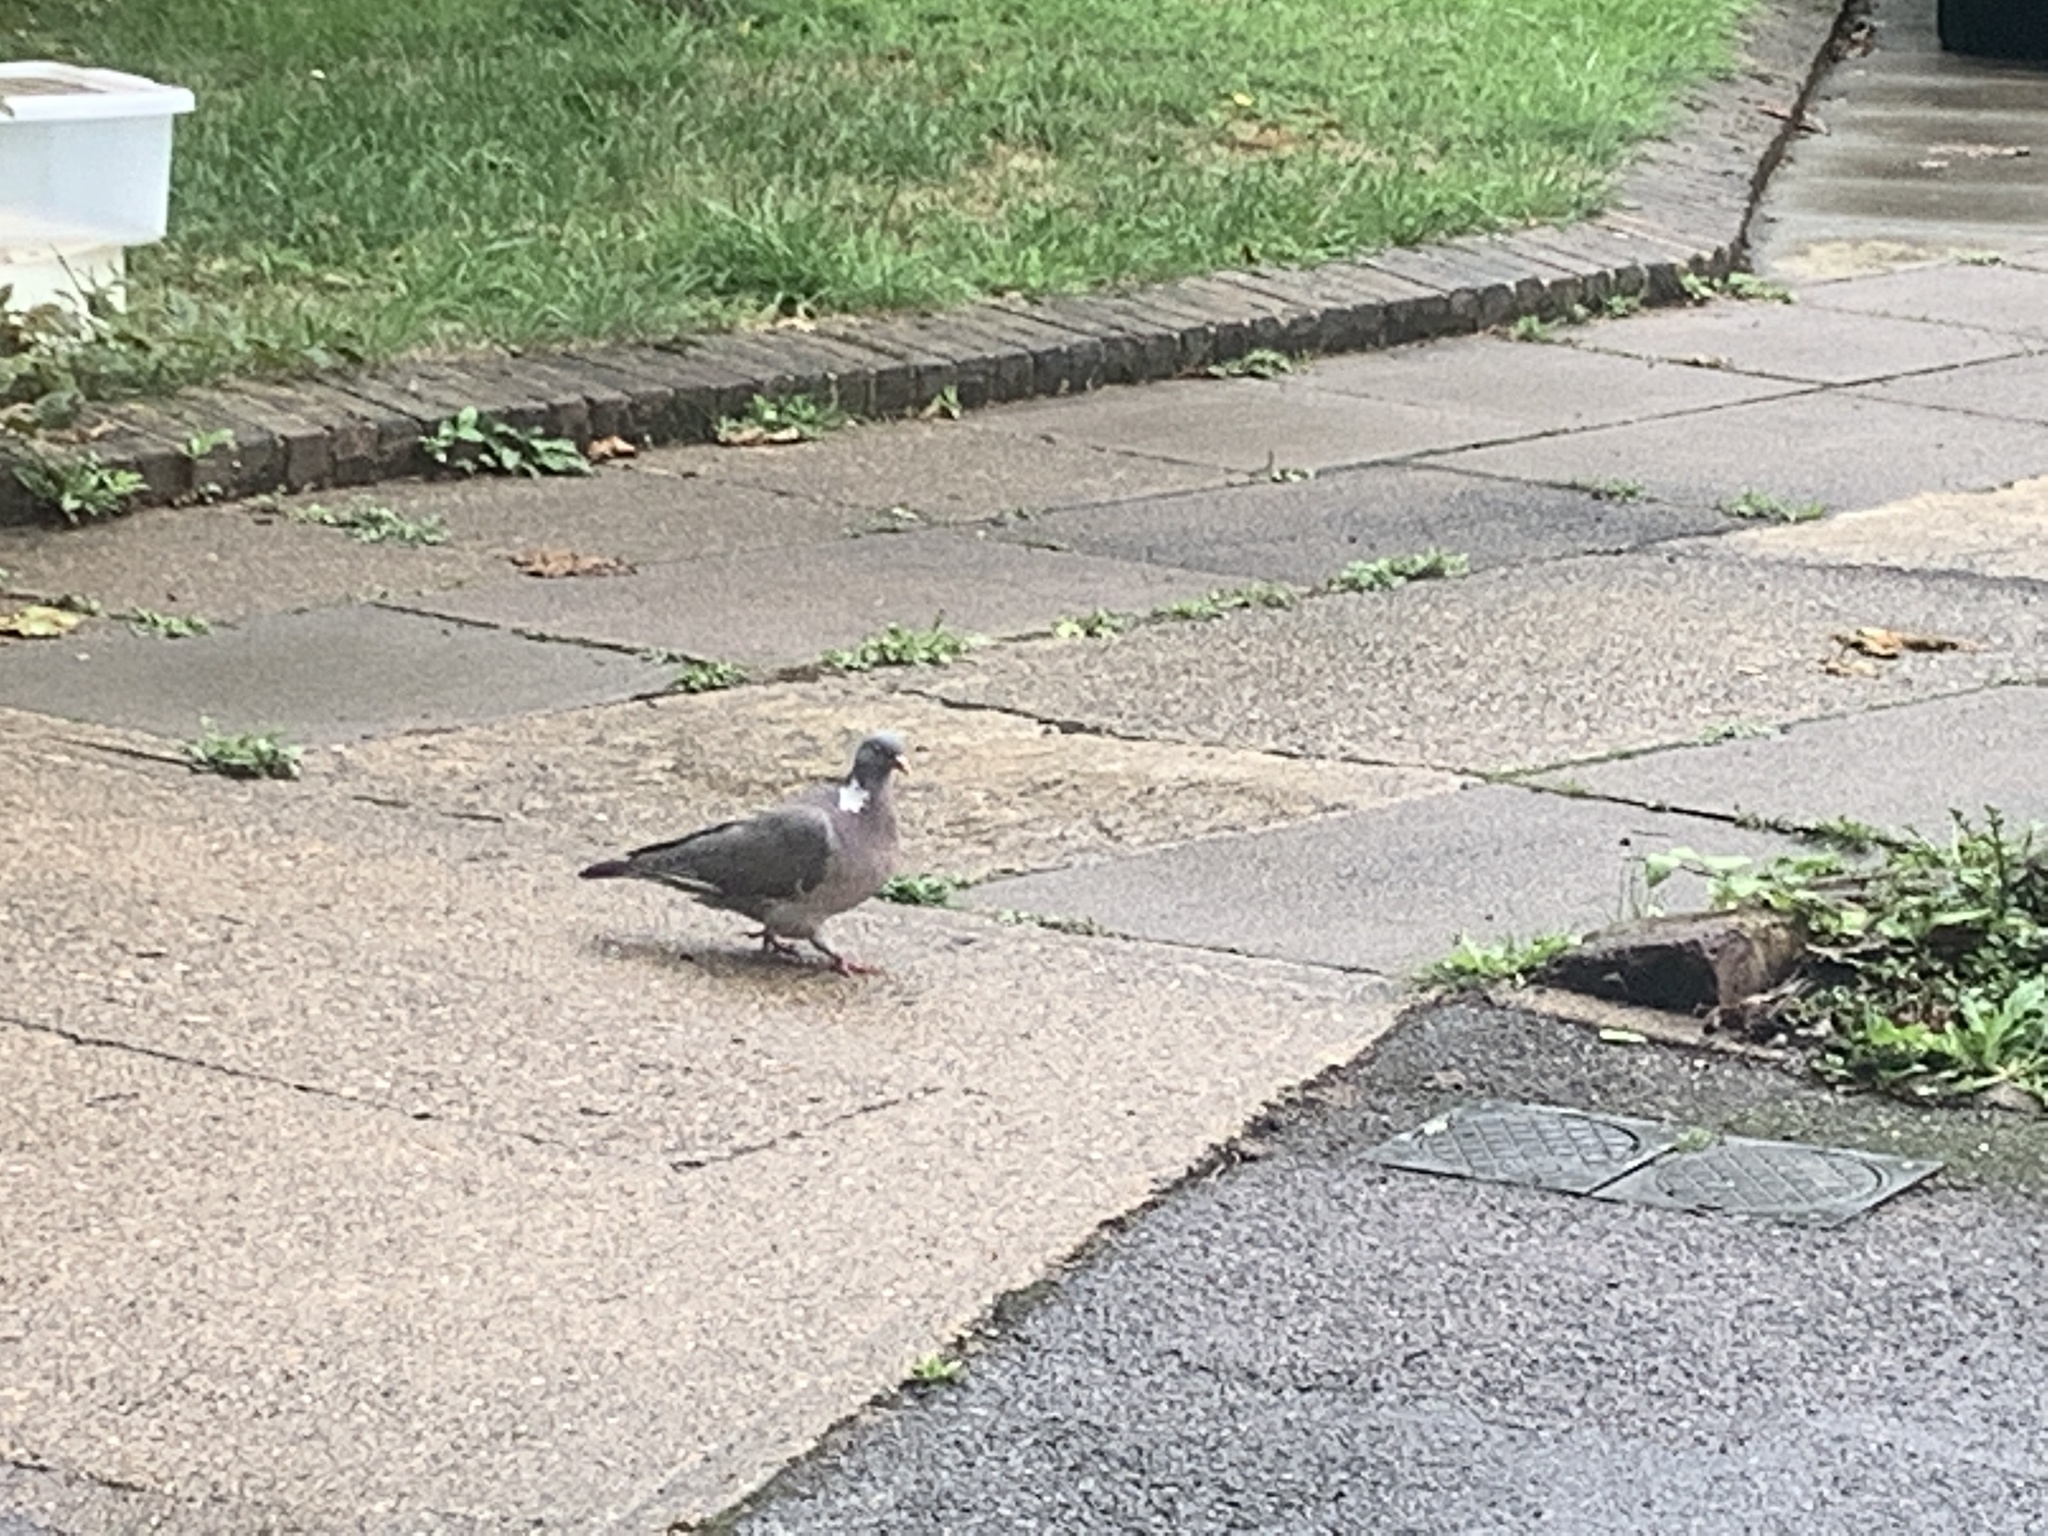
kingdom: Animalia
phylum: Chordata
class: Aves
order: Columbiformes
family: Columbidae
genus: Columba
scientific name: Columba palumbus
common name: Common wood pigeon
